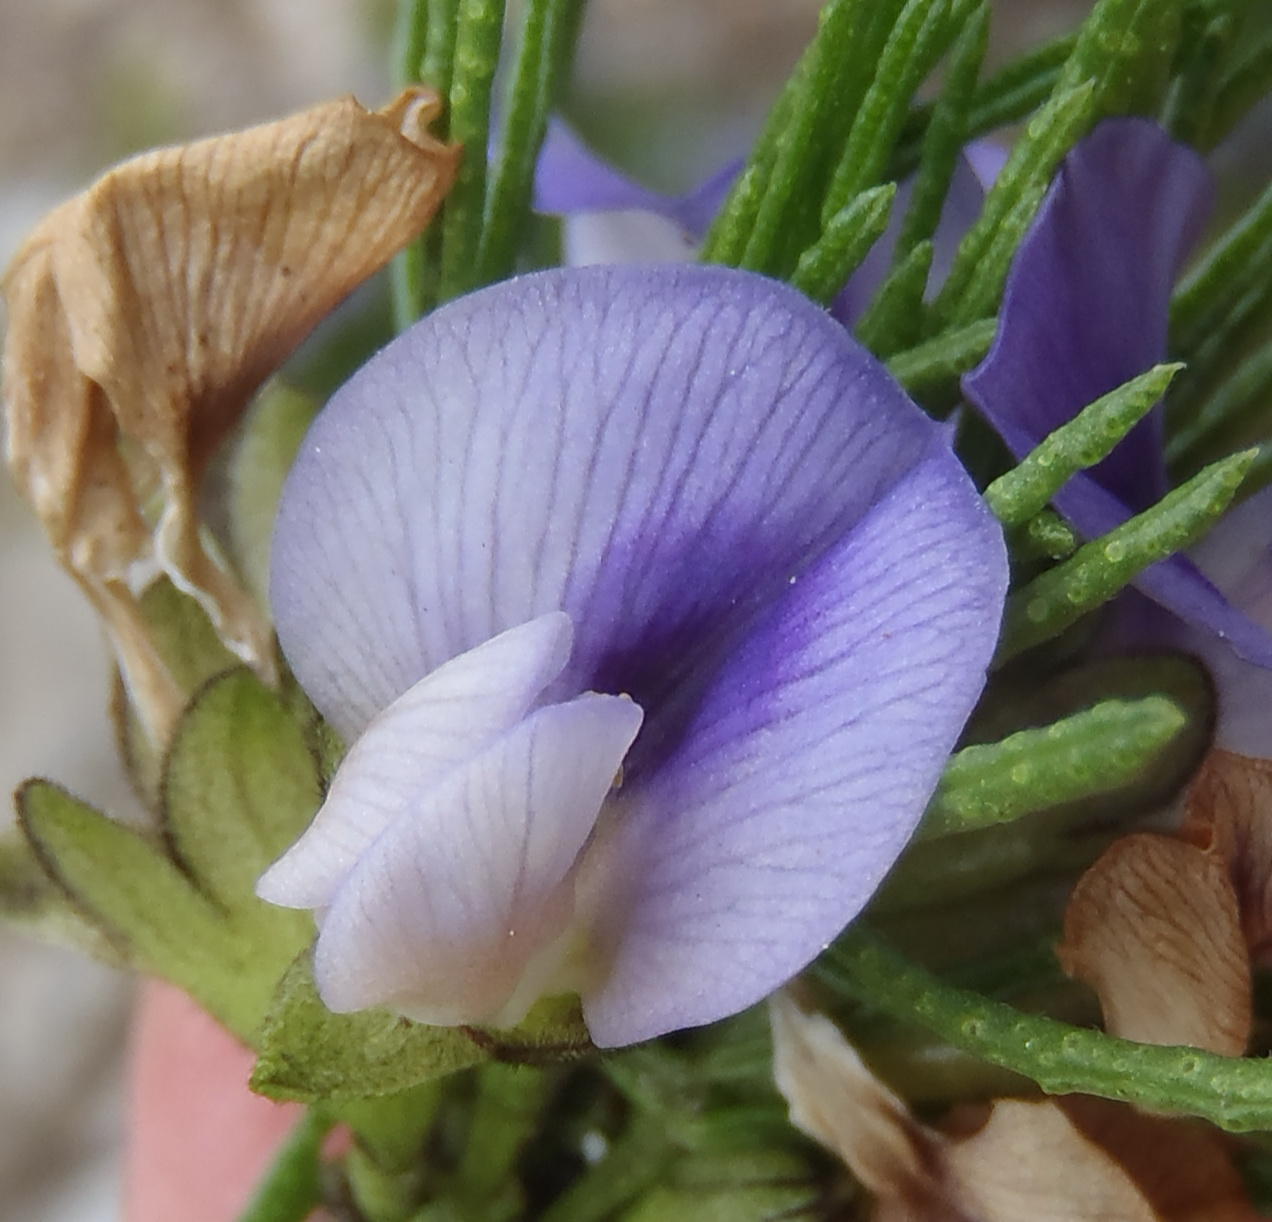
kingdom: Plantae
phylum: Tracheophyta
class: Magnoliopsida
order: Fabales
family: Fabaceae
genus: Psoralea
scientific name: Psoralea vanberkelae
